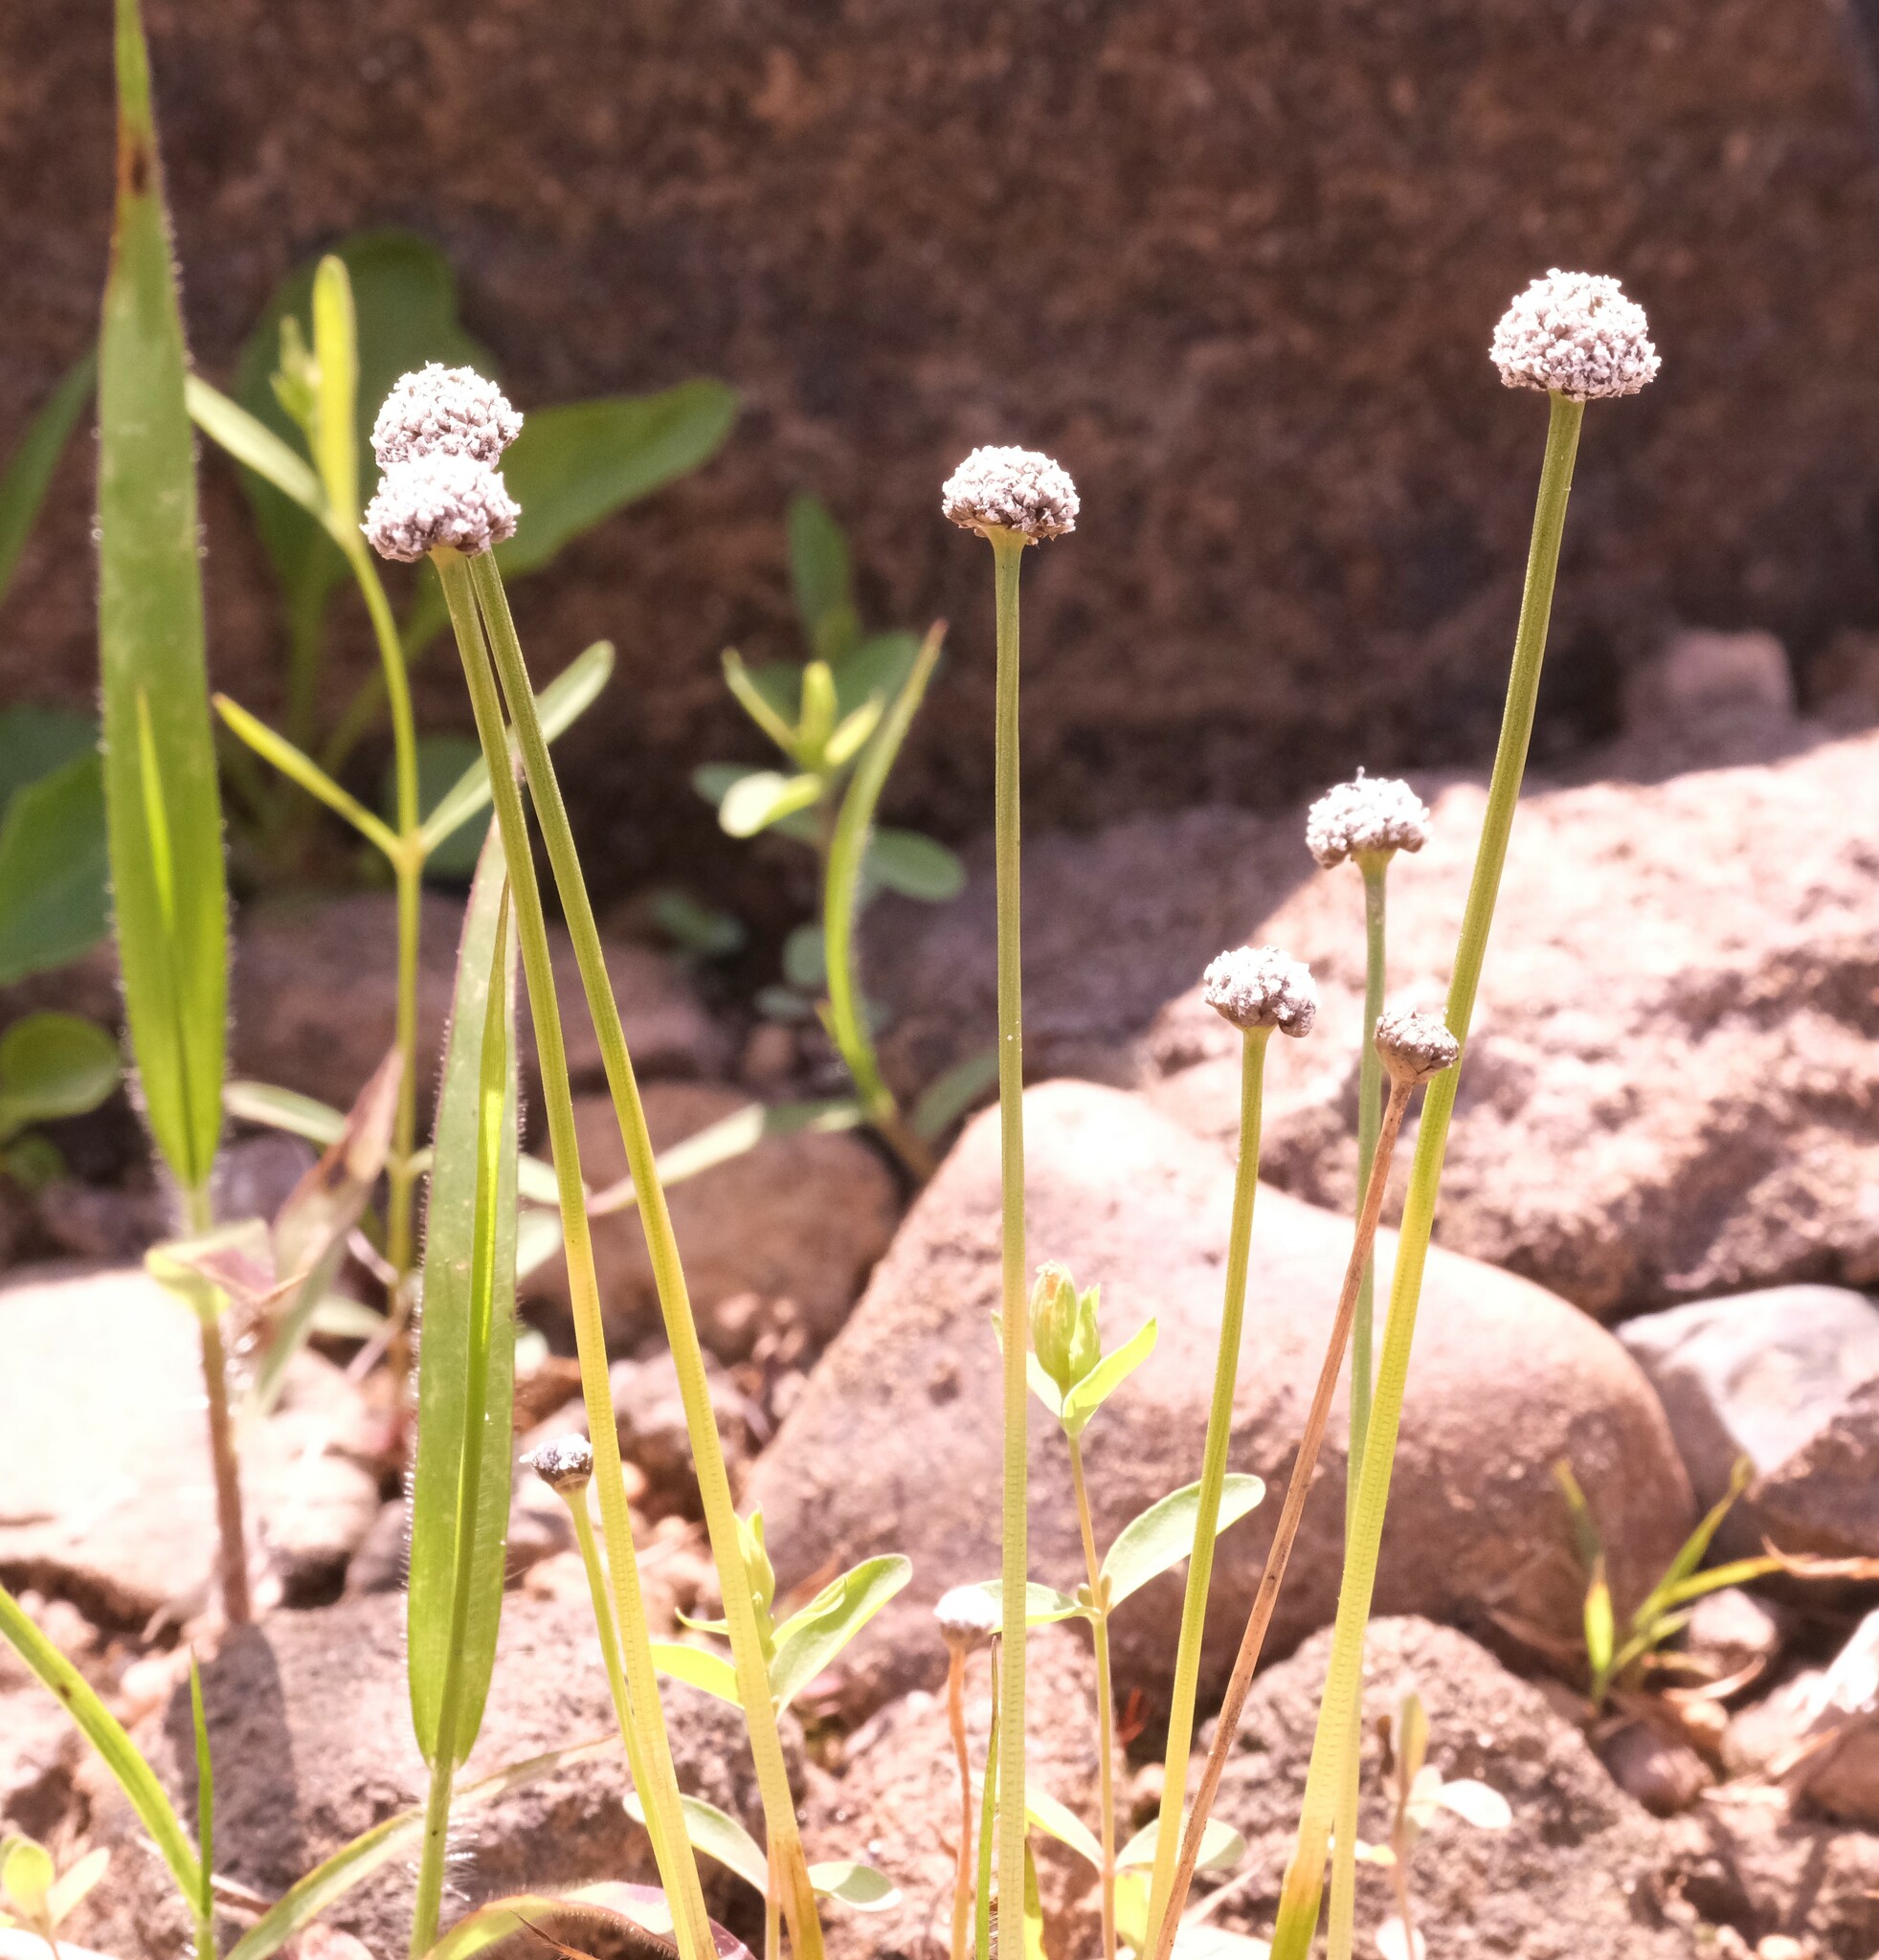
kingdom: Plantae
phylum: Tracheophyta
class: Liliopsida
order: Poales
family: Eriocaulaceae
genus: Eriocaulon
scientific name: Eriocaulon aquaticum
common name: Pipewort
